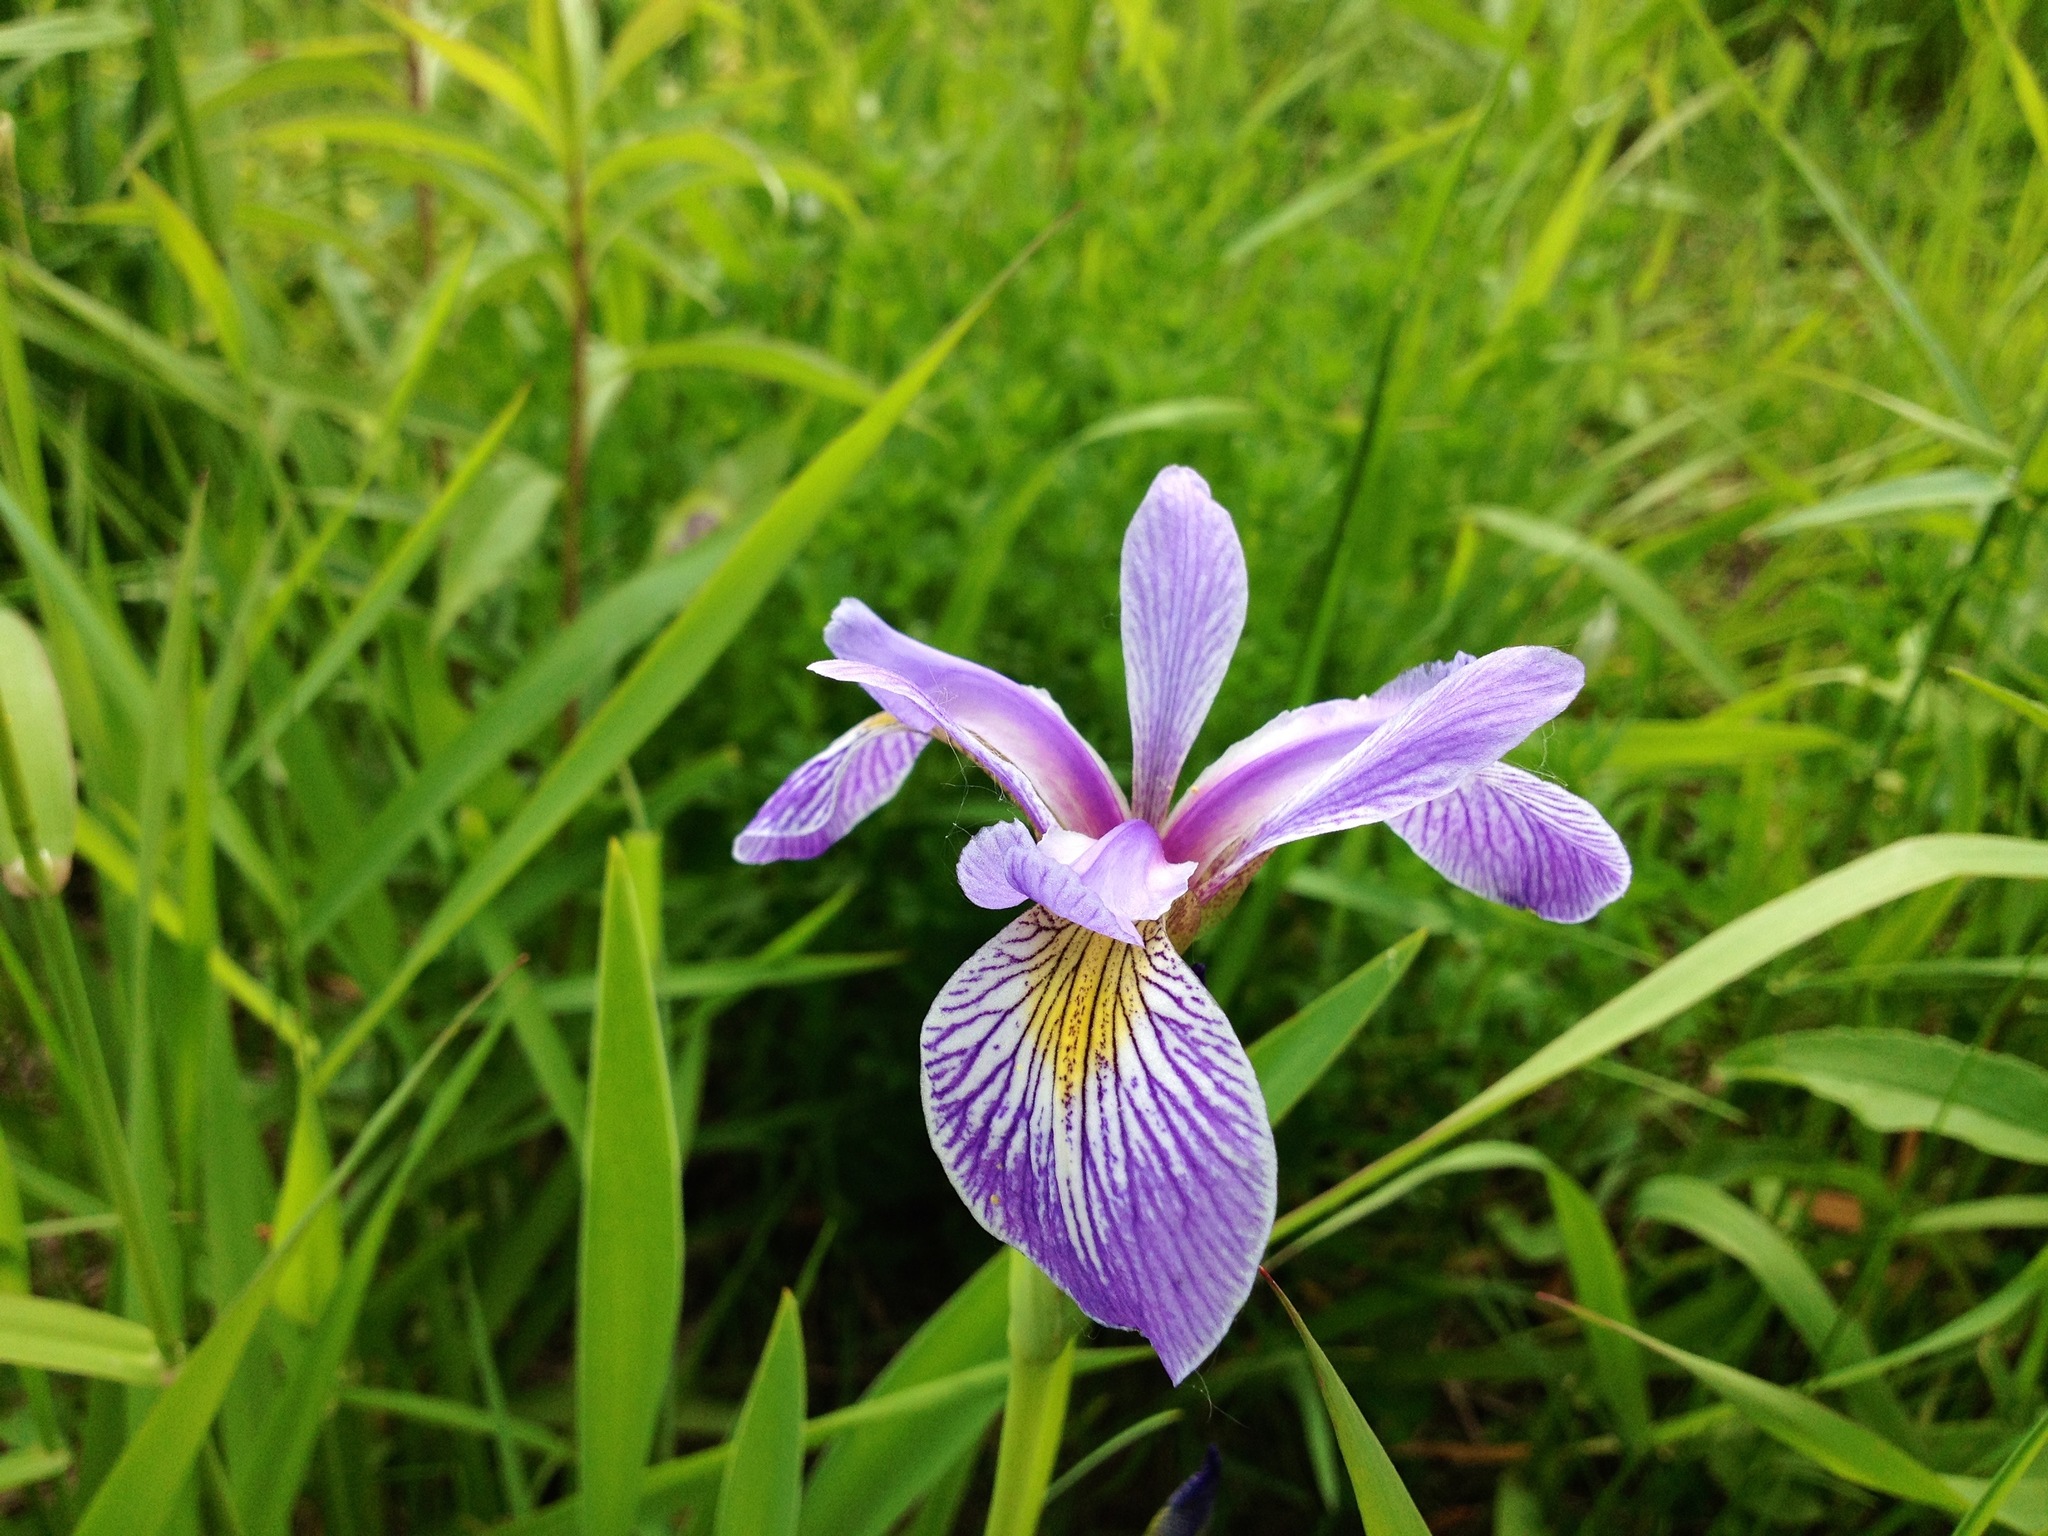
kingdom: Plantae
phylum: Tracheophyta
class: Liliopsida
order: Asparagales
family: Iridaceae
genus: Iris
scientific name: Iris versicolor
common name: Purple iris
